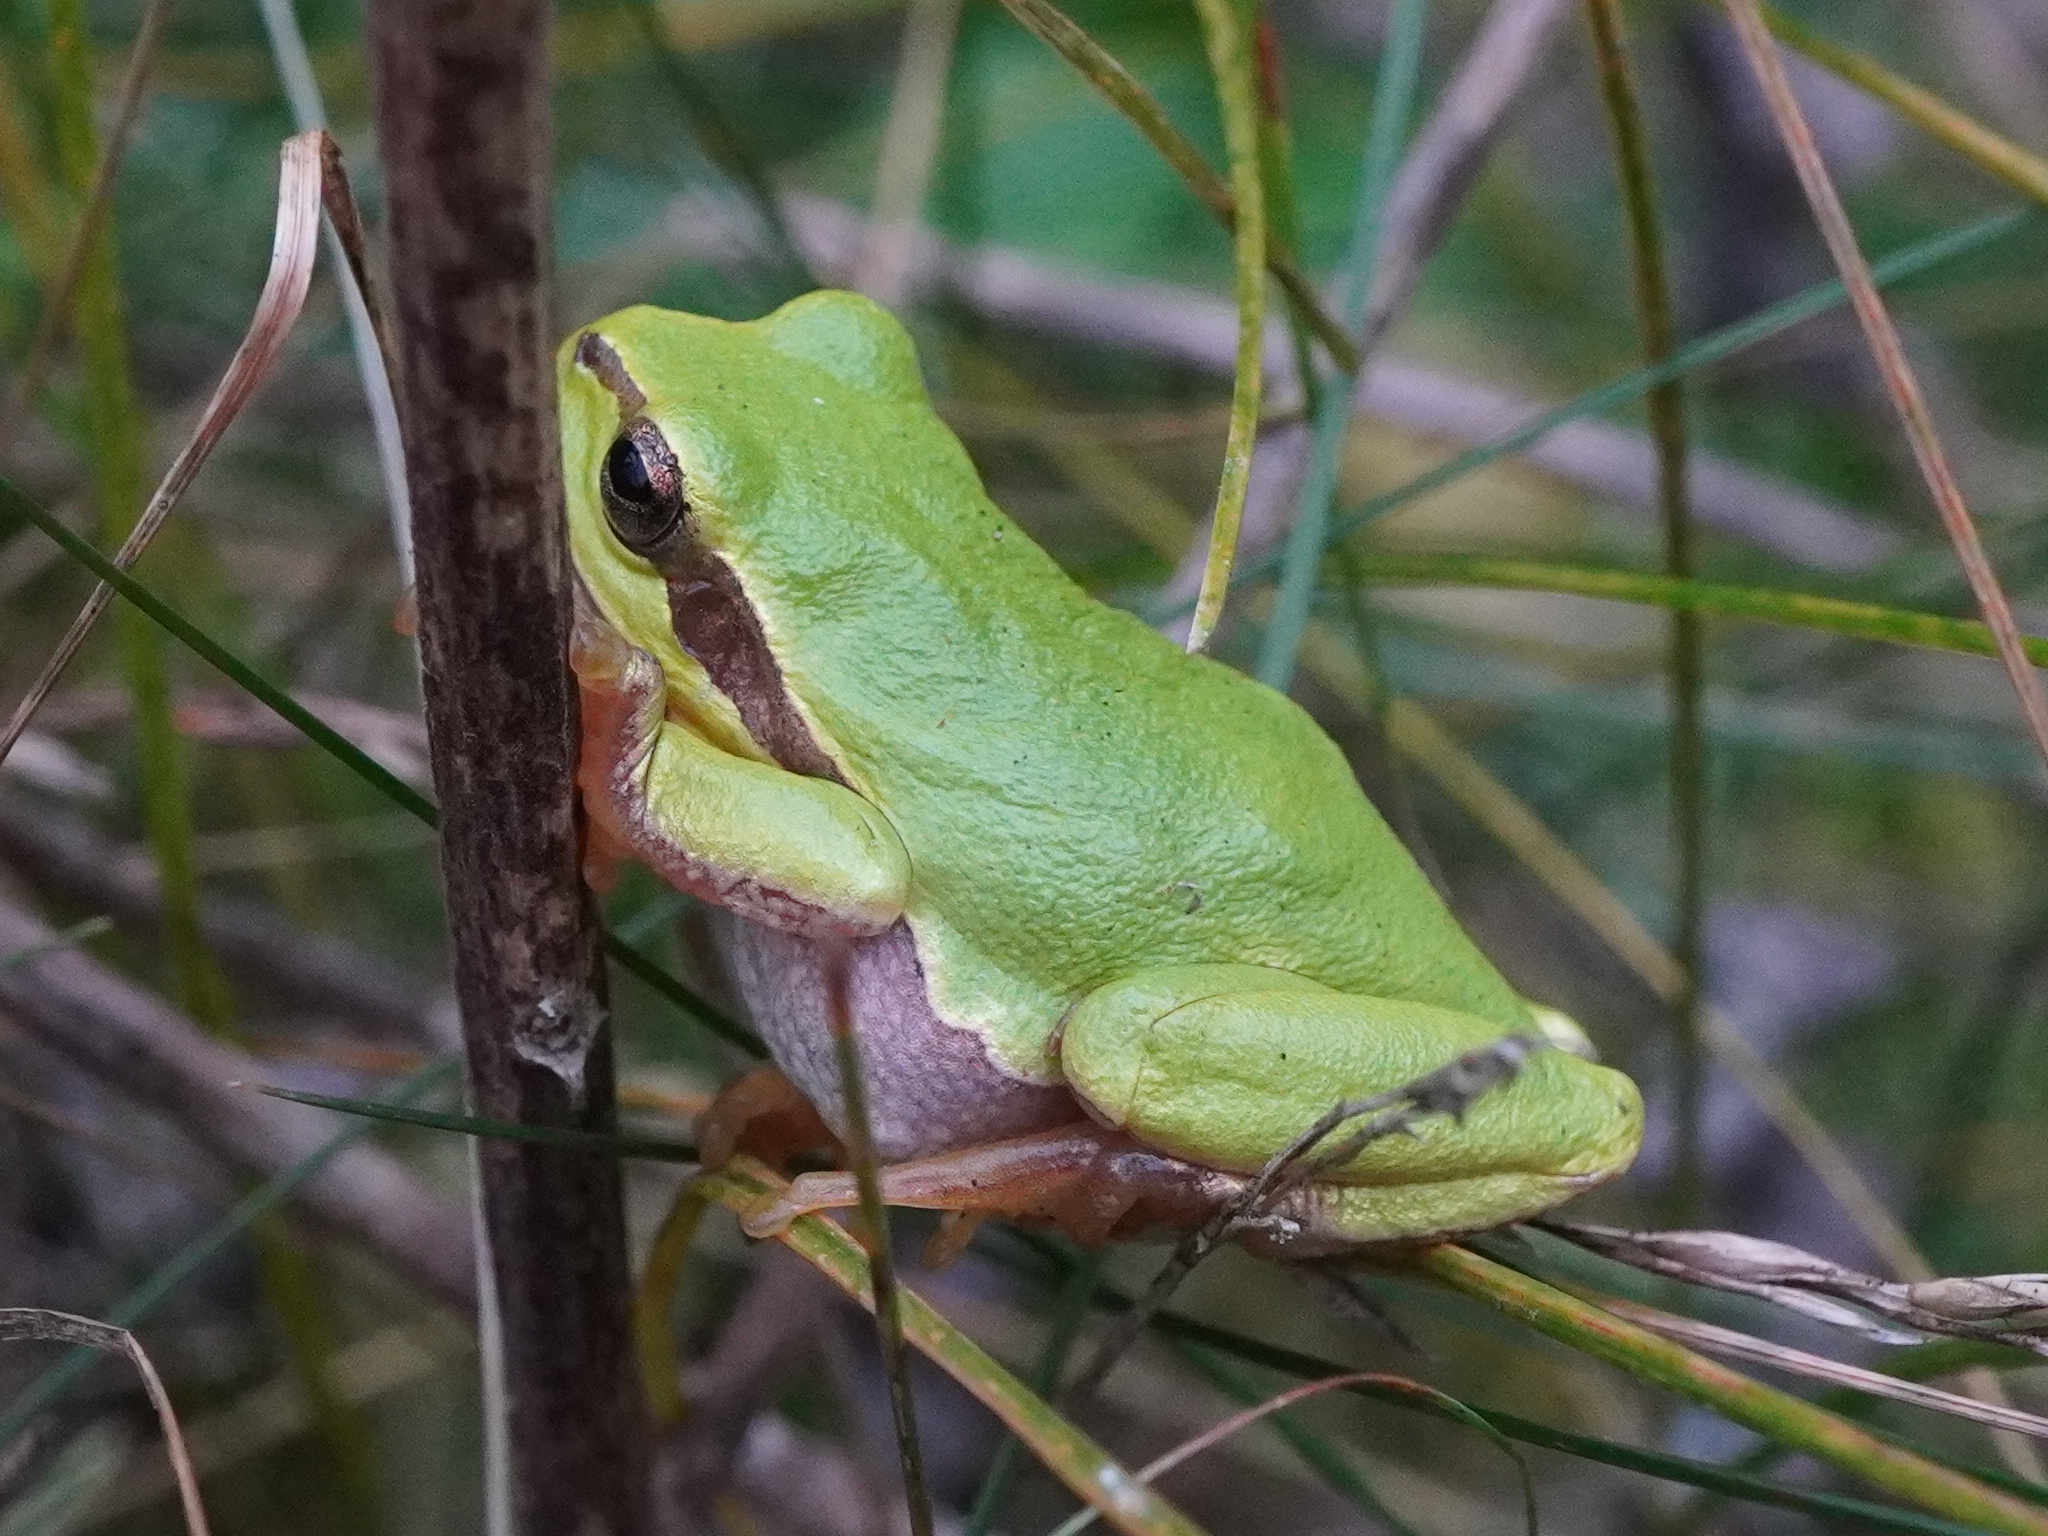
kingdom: Animalia
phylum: Chordata
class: Amphibia
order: Anura
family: Hylidae
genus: Hyla
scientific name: Hyla arborea
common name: Common tree frog
